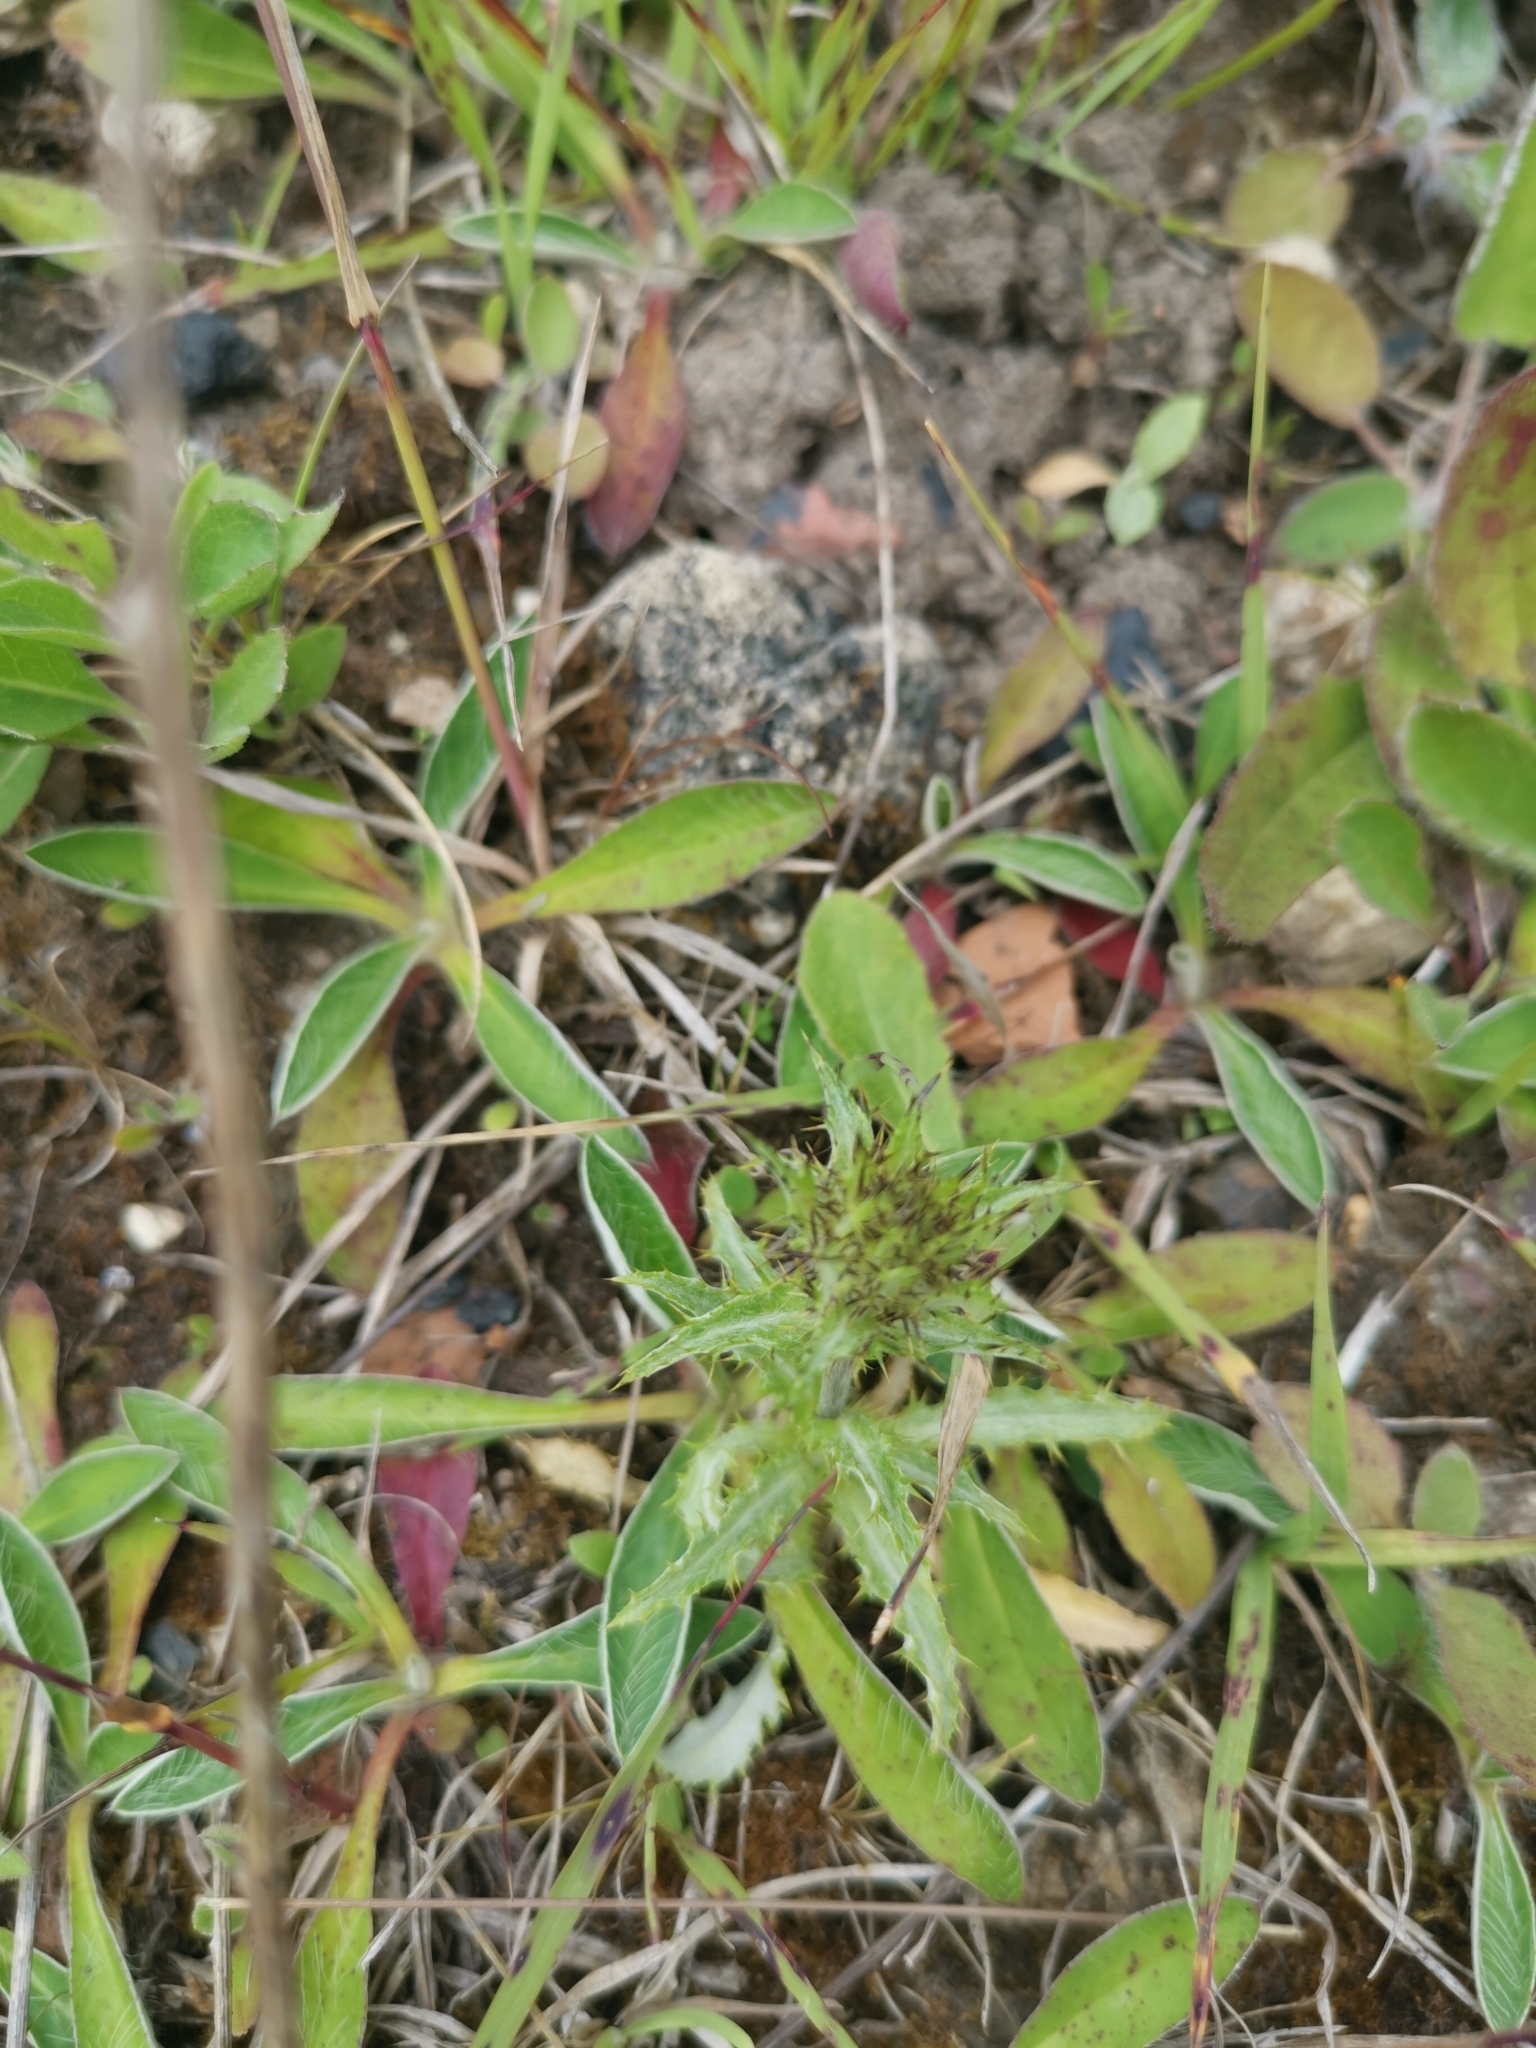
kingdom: Plantae
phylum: Tracheophyta
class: Magnoliopsida
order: Asterales
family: Asteraceae
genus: Carlina
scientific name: Carlina vulgaris
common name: Carline thistle
